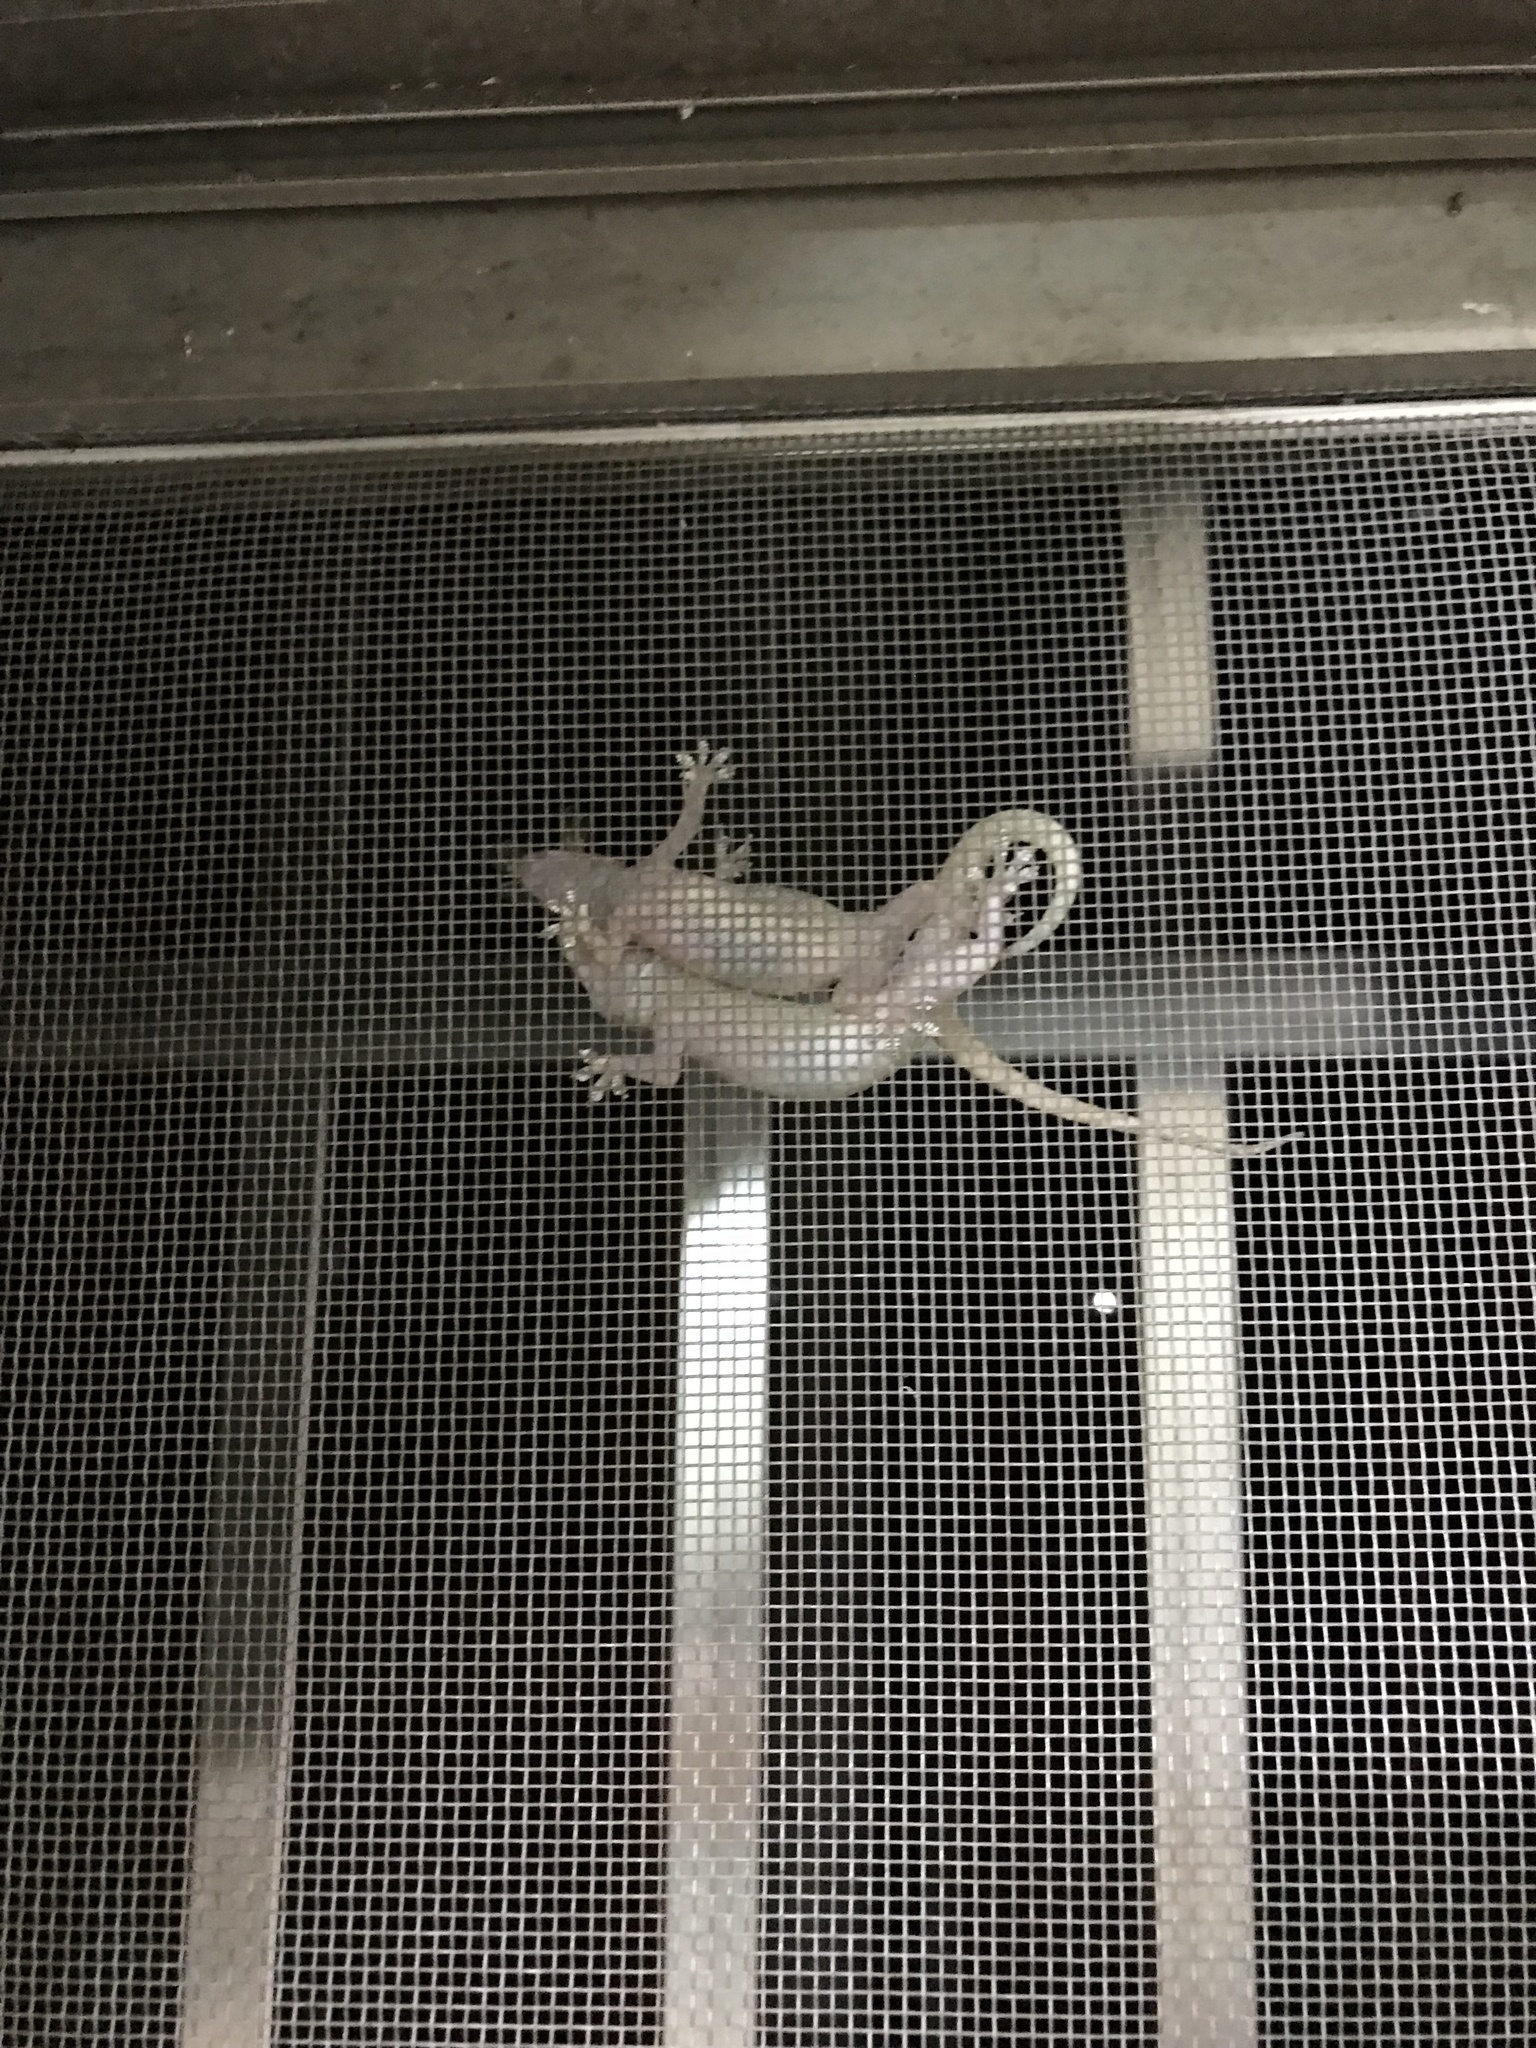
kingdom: Animalia
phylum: Chordata
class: Squamata
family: Gekkonidae
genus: Hemidactylus
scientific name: Hemidactylus frenatus
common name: Common house gecko
